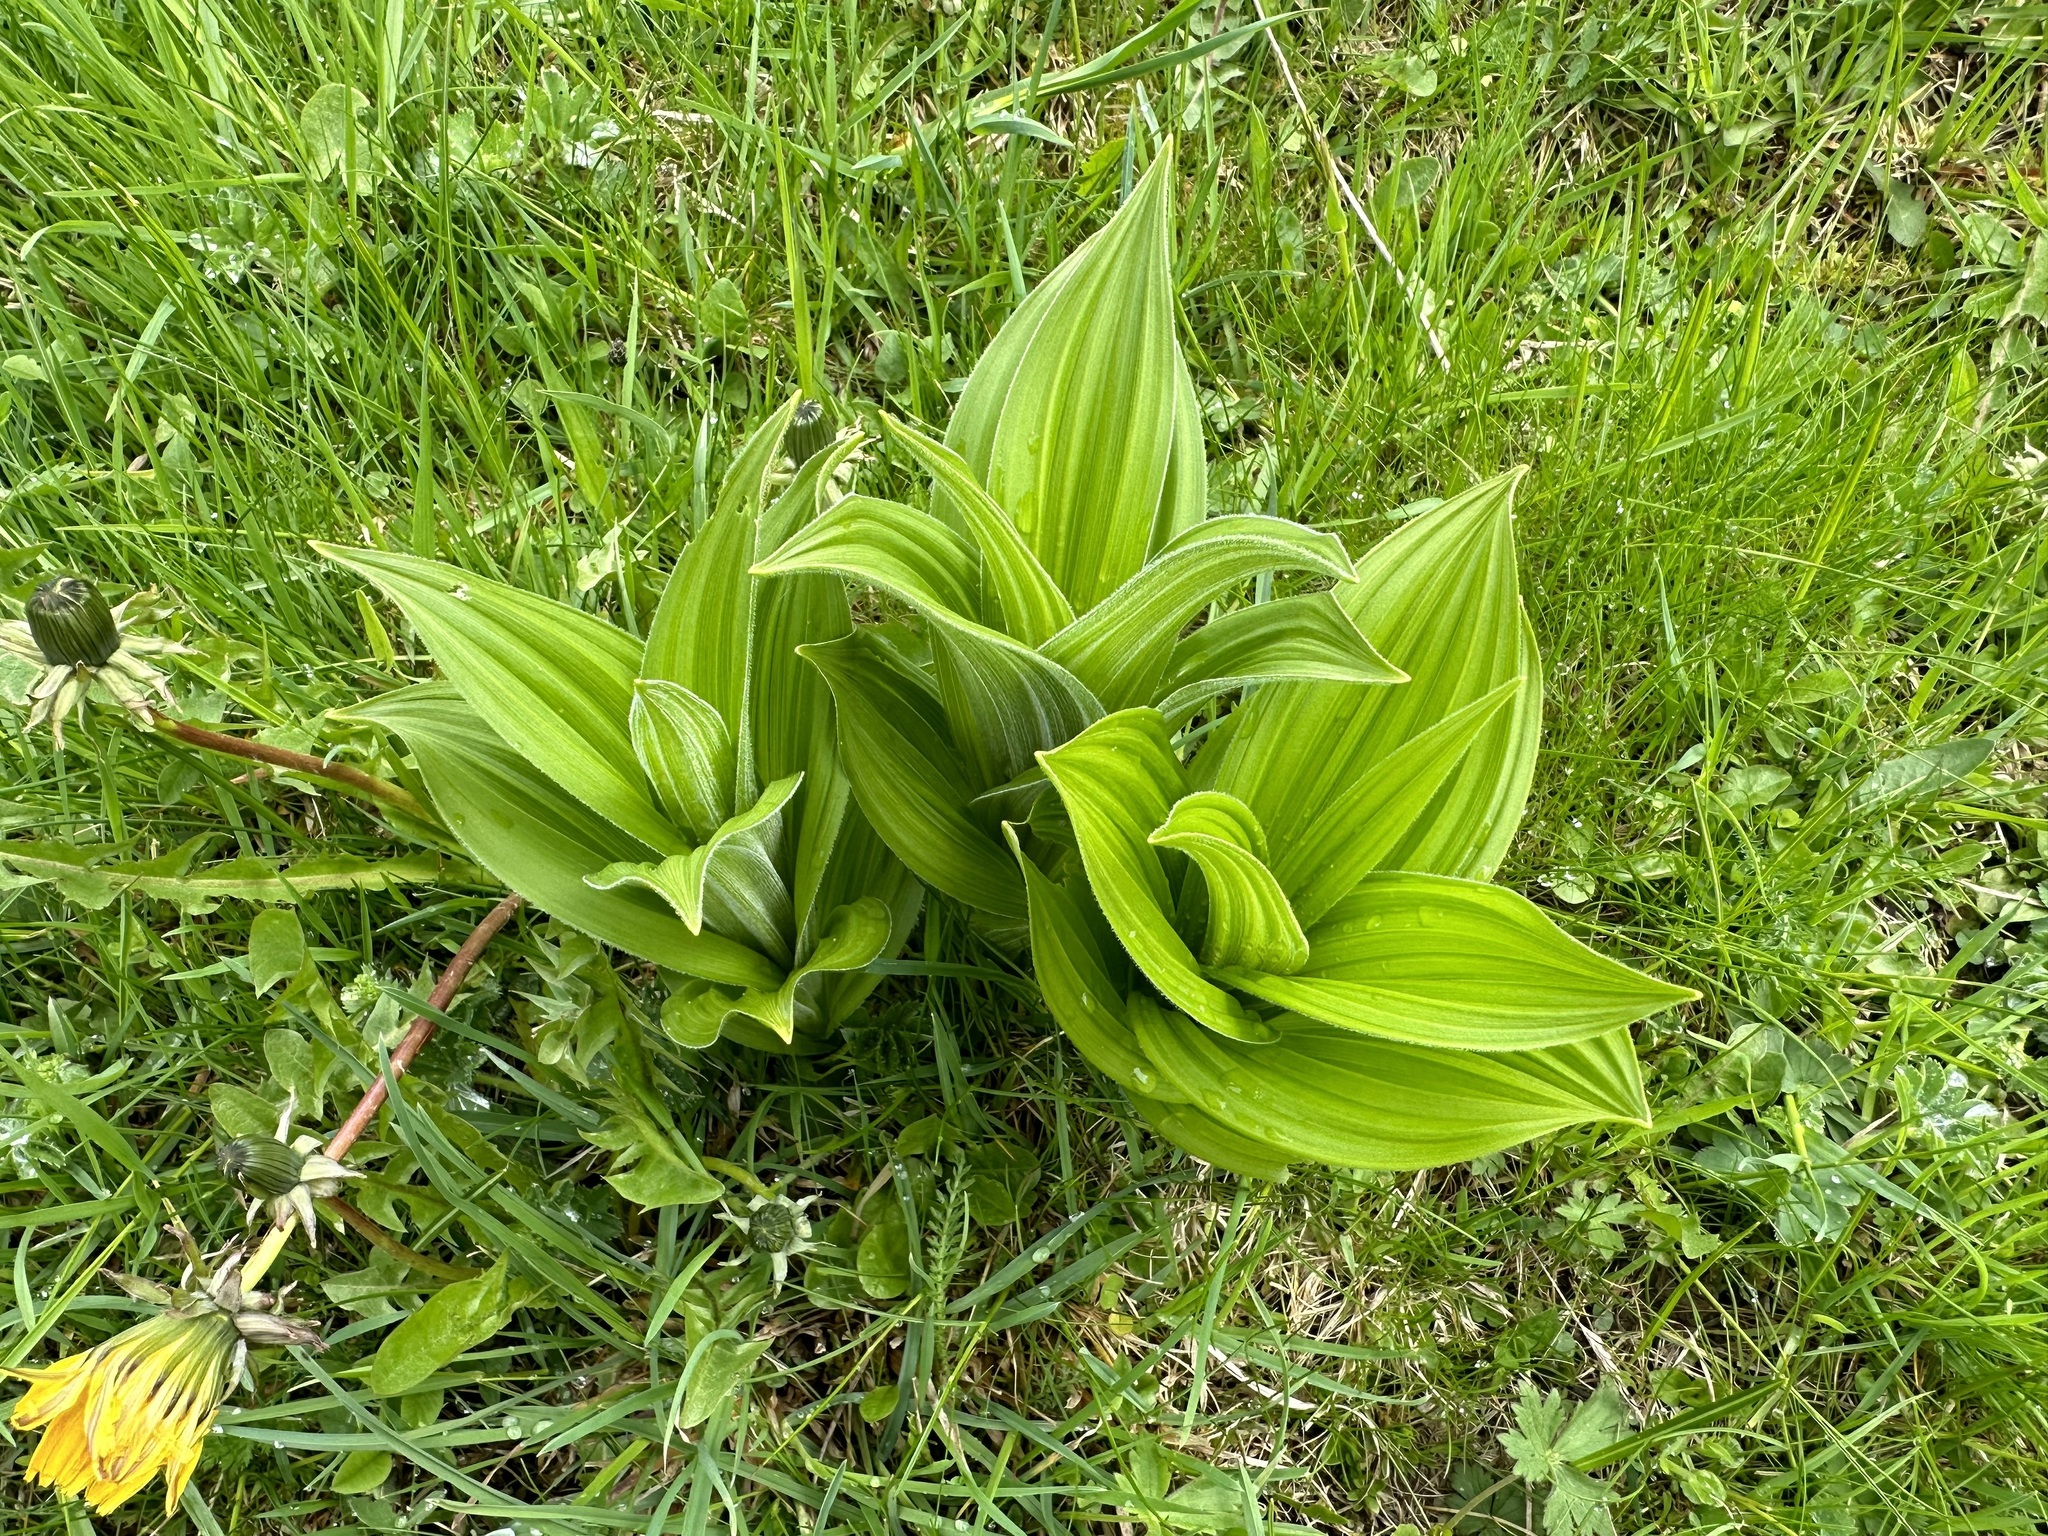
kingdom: Plantae
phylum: Tracheophyta
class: Liliopsida
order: Liliales
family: Melanthiaceae
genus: Veratrum
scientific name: Veratrum album
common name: White veratrum
